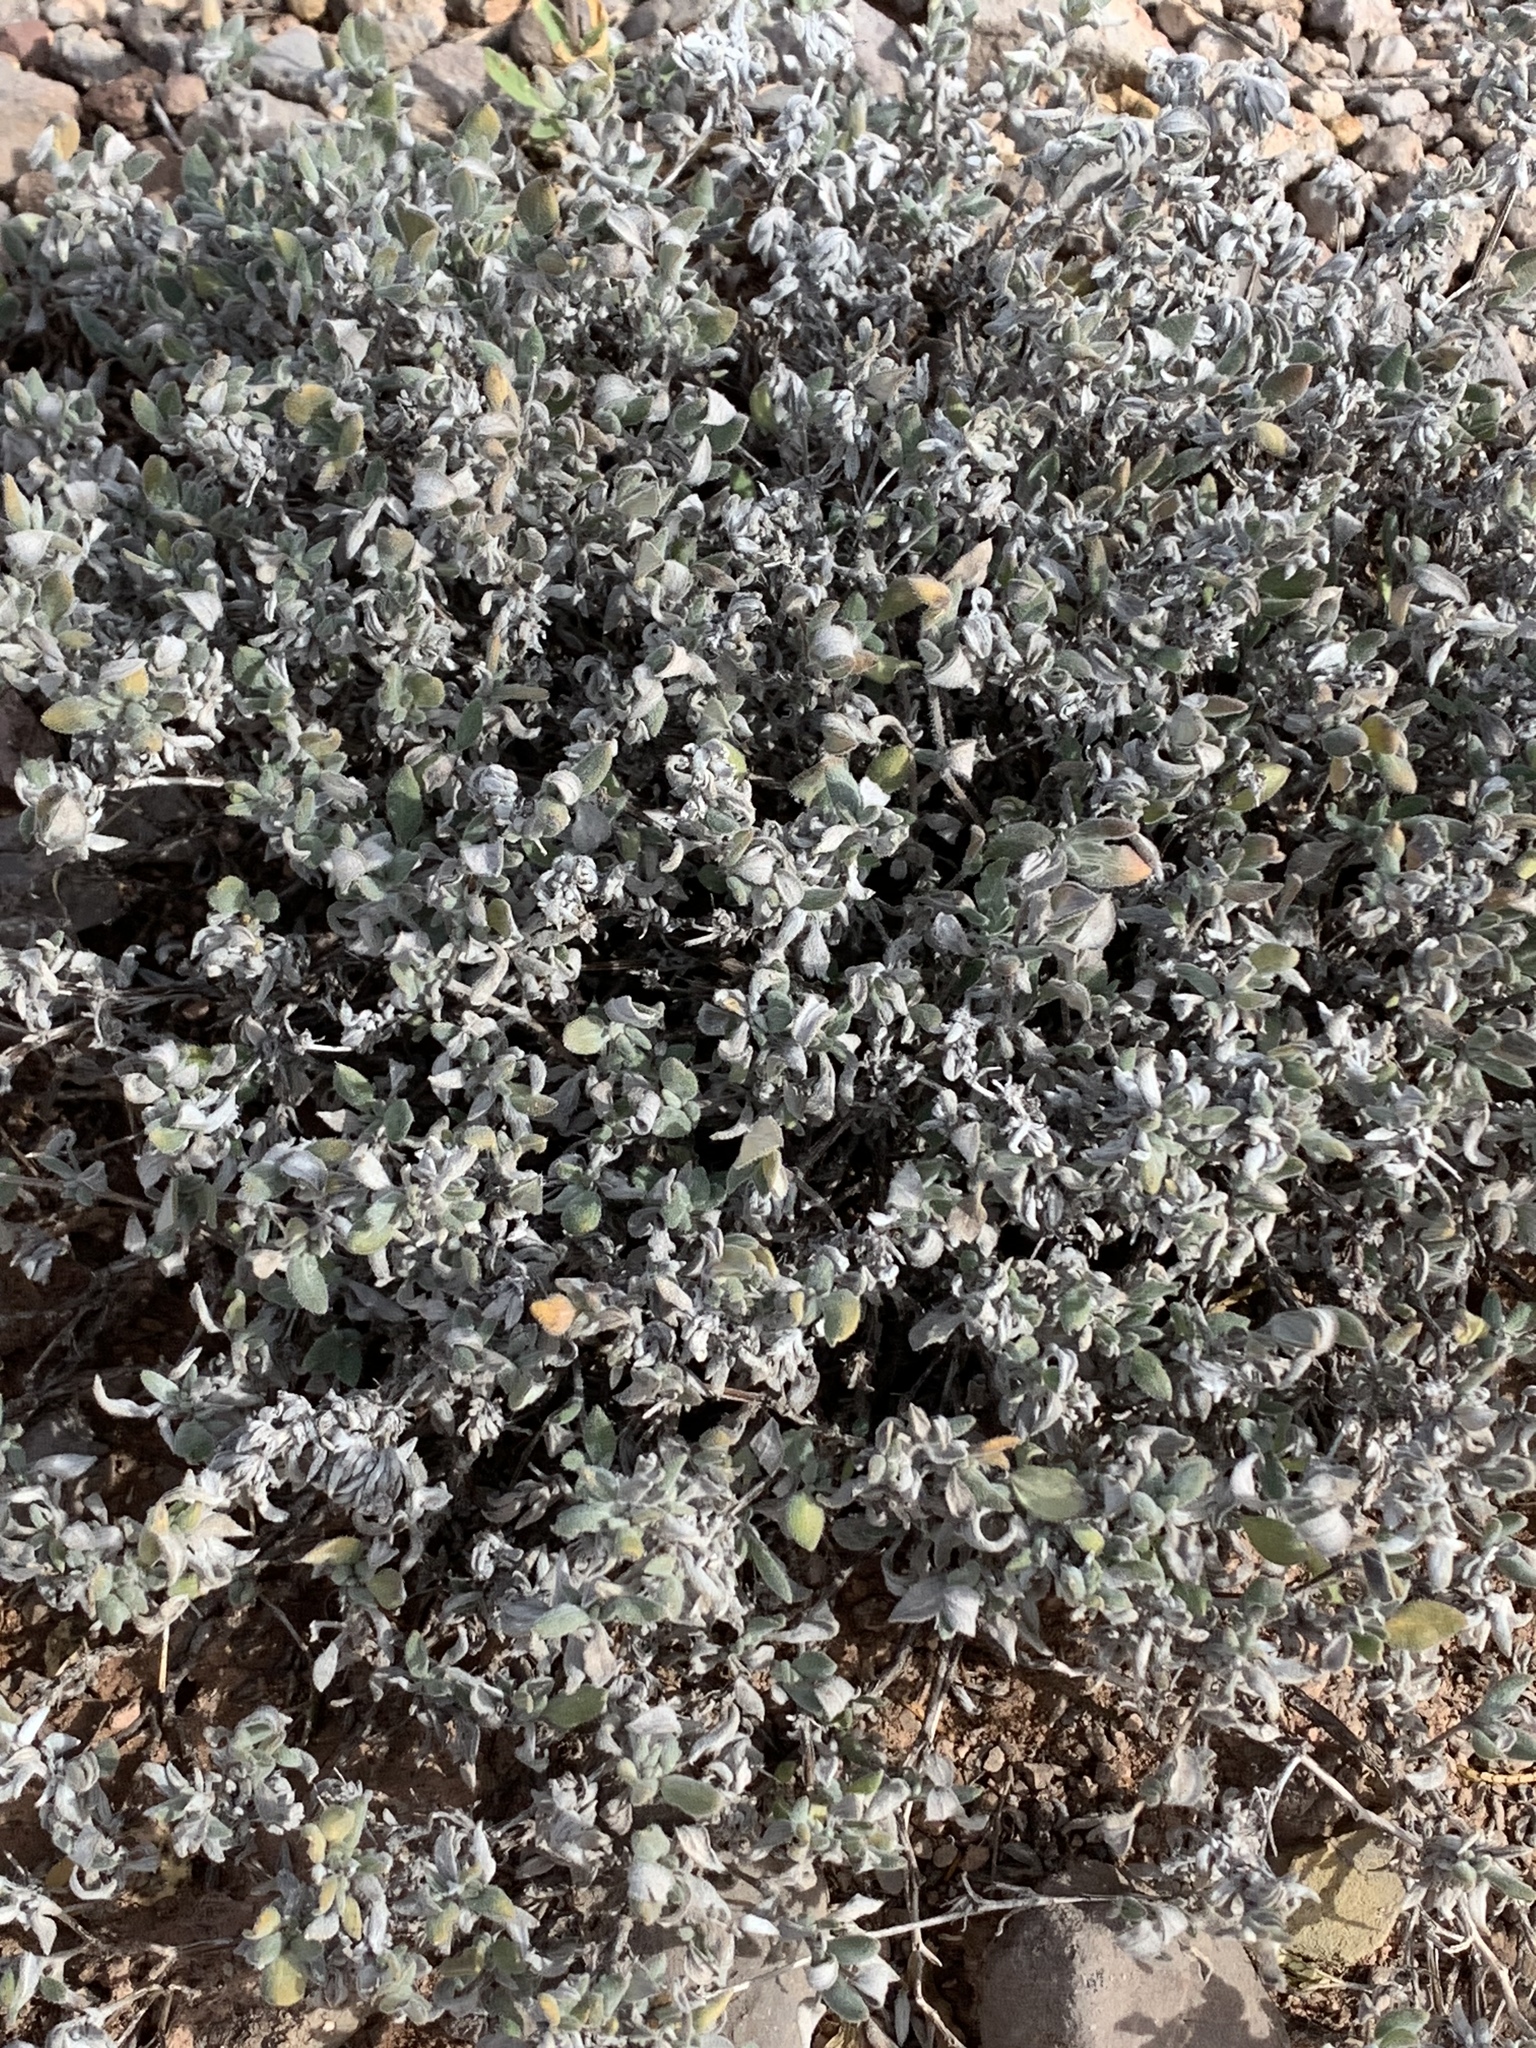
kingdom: Plantae
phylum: Tracheophyta
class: Magnoliopsida
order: Boraginales
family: Ehretiaceae
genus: Tiquilia
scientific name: Tiquilia canescens
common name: Hairy tiquilia
